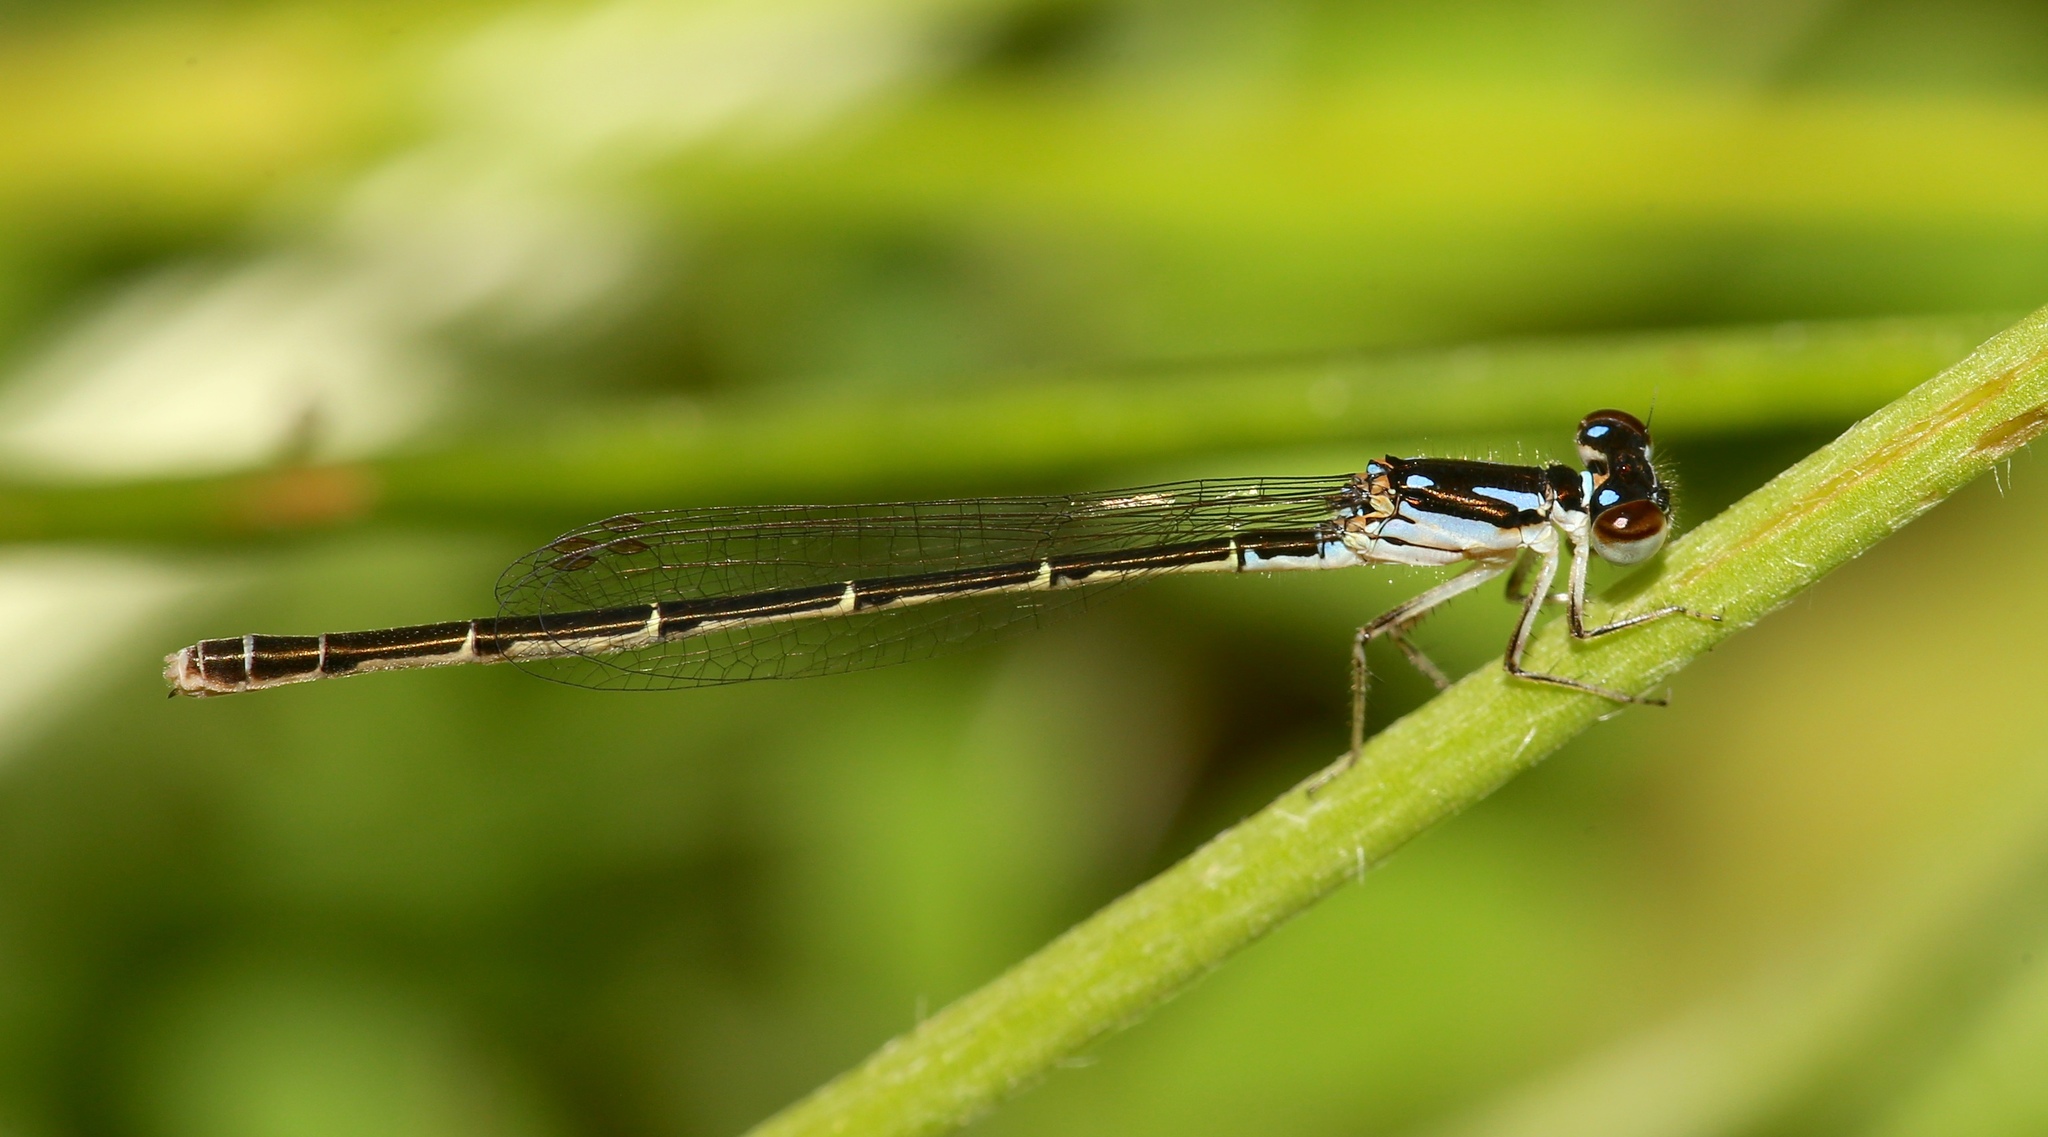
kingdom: Animalia
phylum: Arthropoda
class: Insecta
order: Odonata
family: Coenagrionidae
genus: Ischnura
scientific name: Ischnura posita
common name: Fragile forktail
